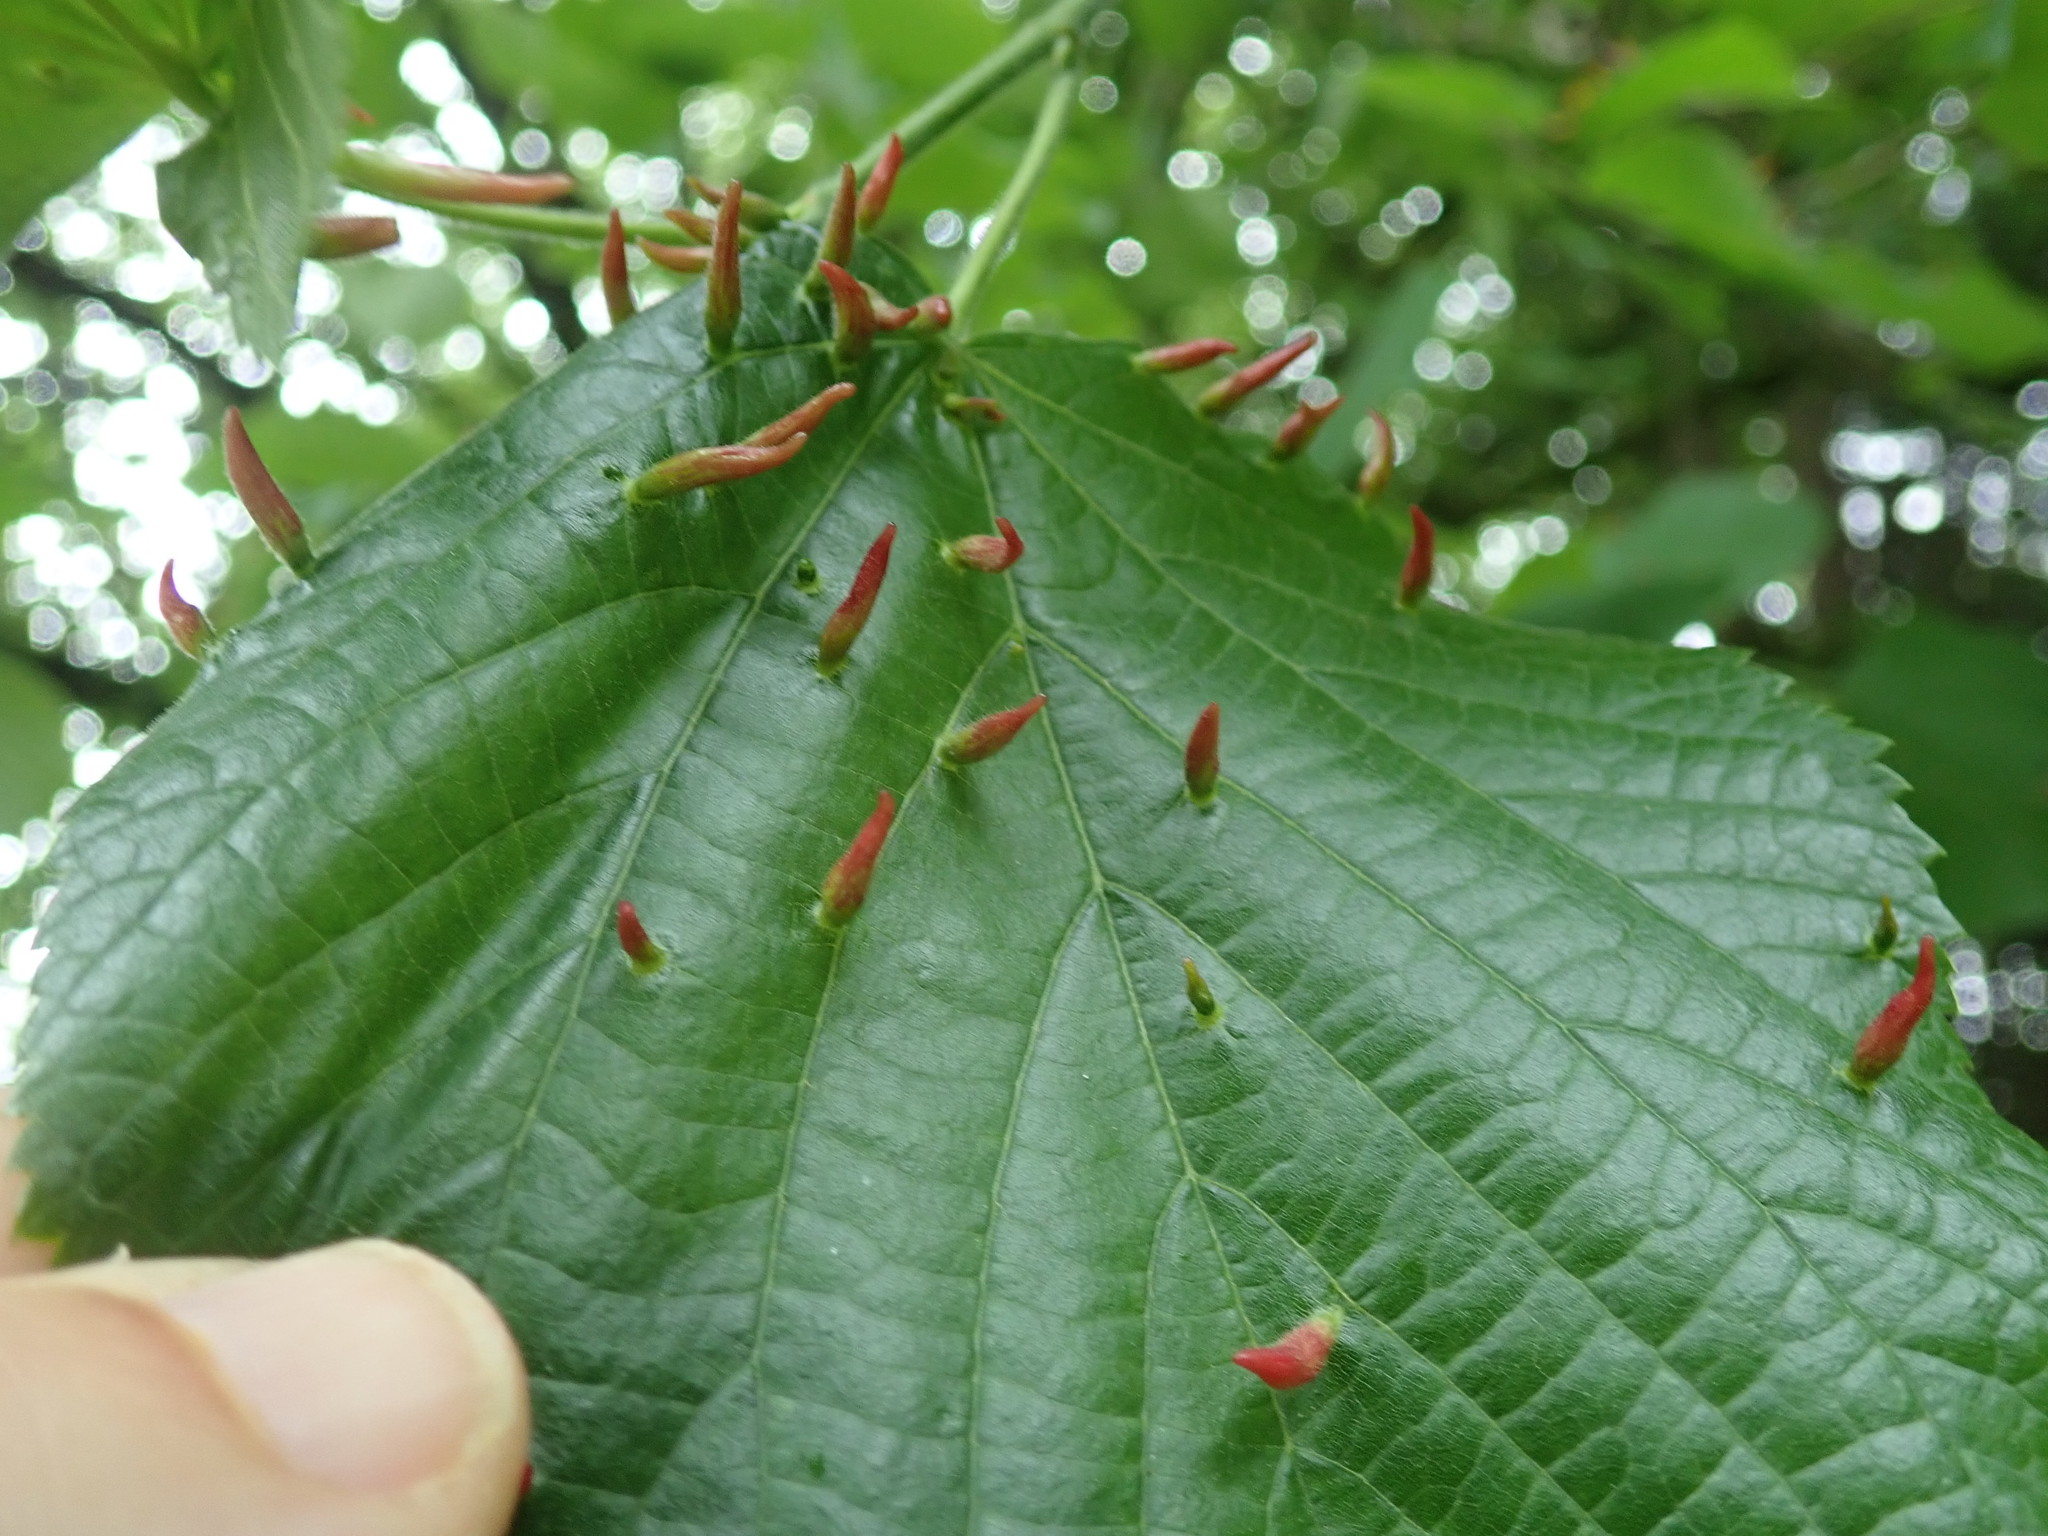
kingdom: Animalia
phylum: Arthropoda
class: Arachnida
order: Trombidiformes
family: Eriophyidae
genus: Eriophyes
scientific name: Eriophyes tiliae
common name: Red nail gall mite
